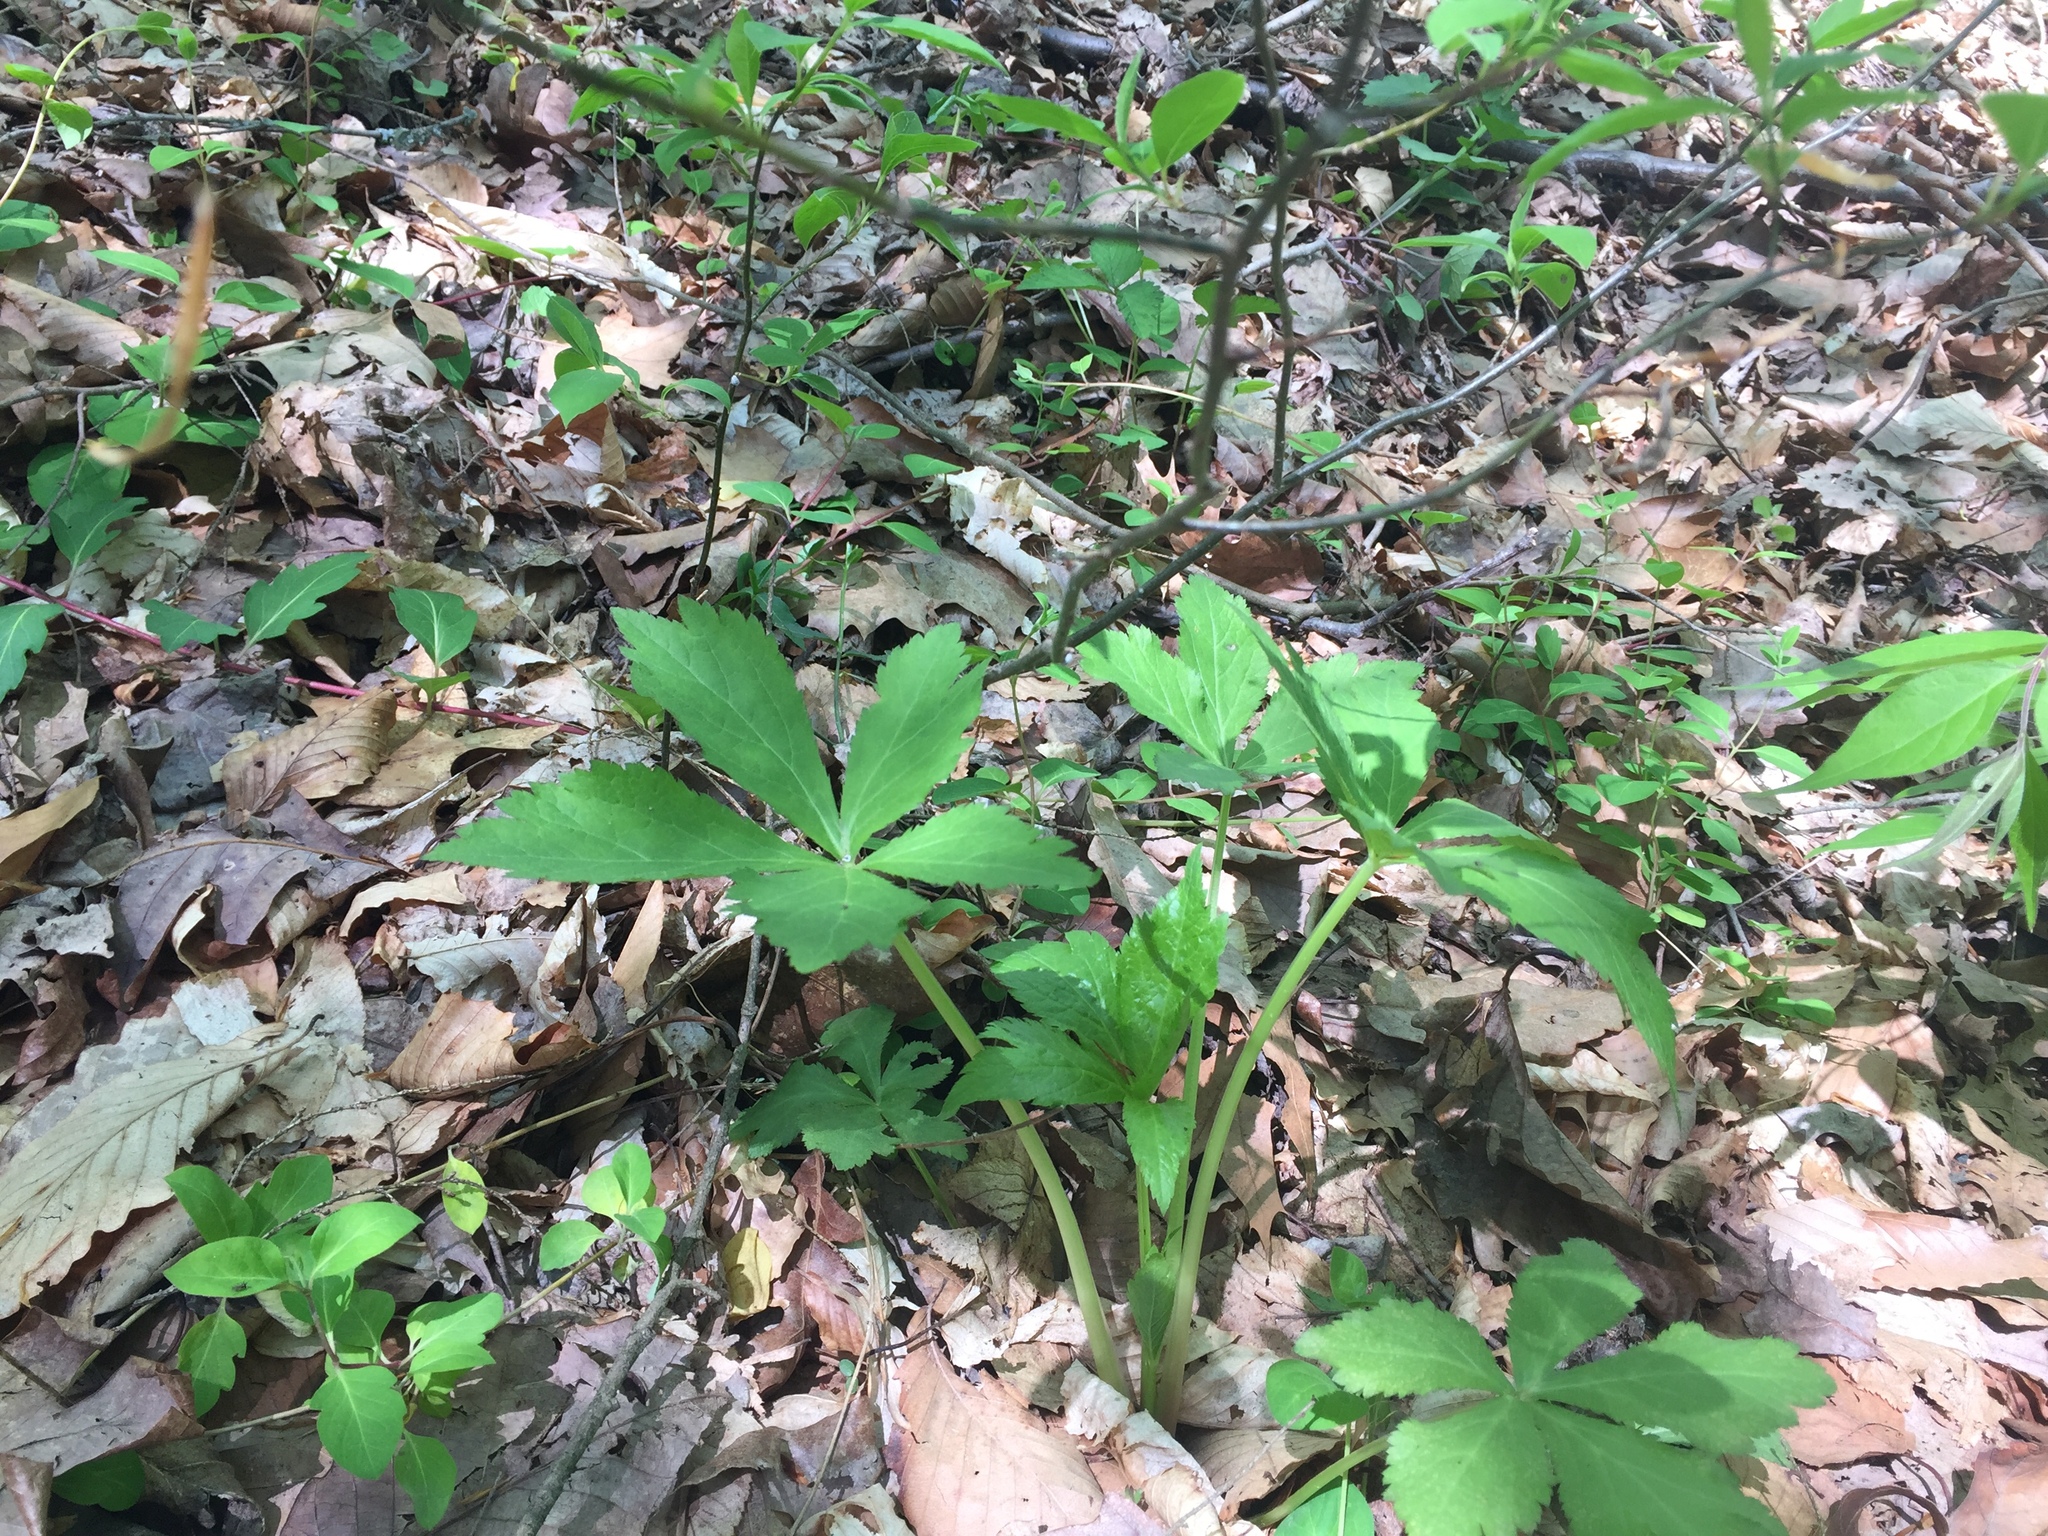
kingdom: Plantae
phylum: Tracheophyta
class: Magnoliopsida
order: Apiales
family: Apiaceae
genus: Sanicula
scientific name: Sanicula canadensis
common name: Canada sanicle
